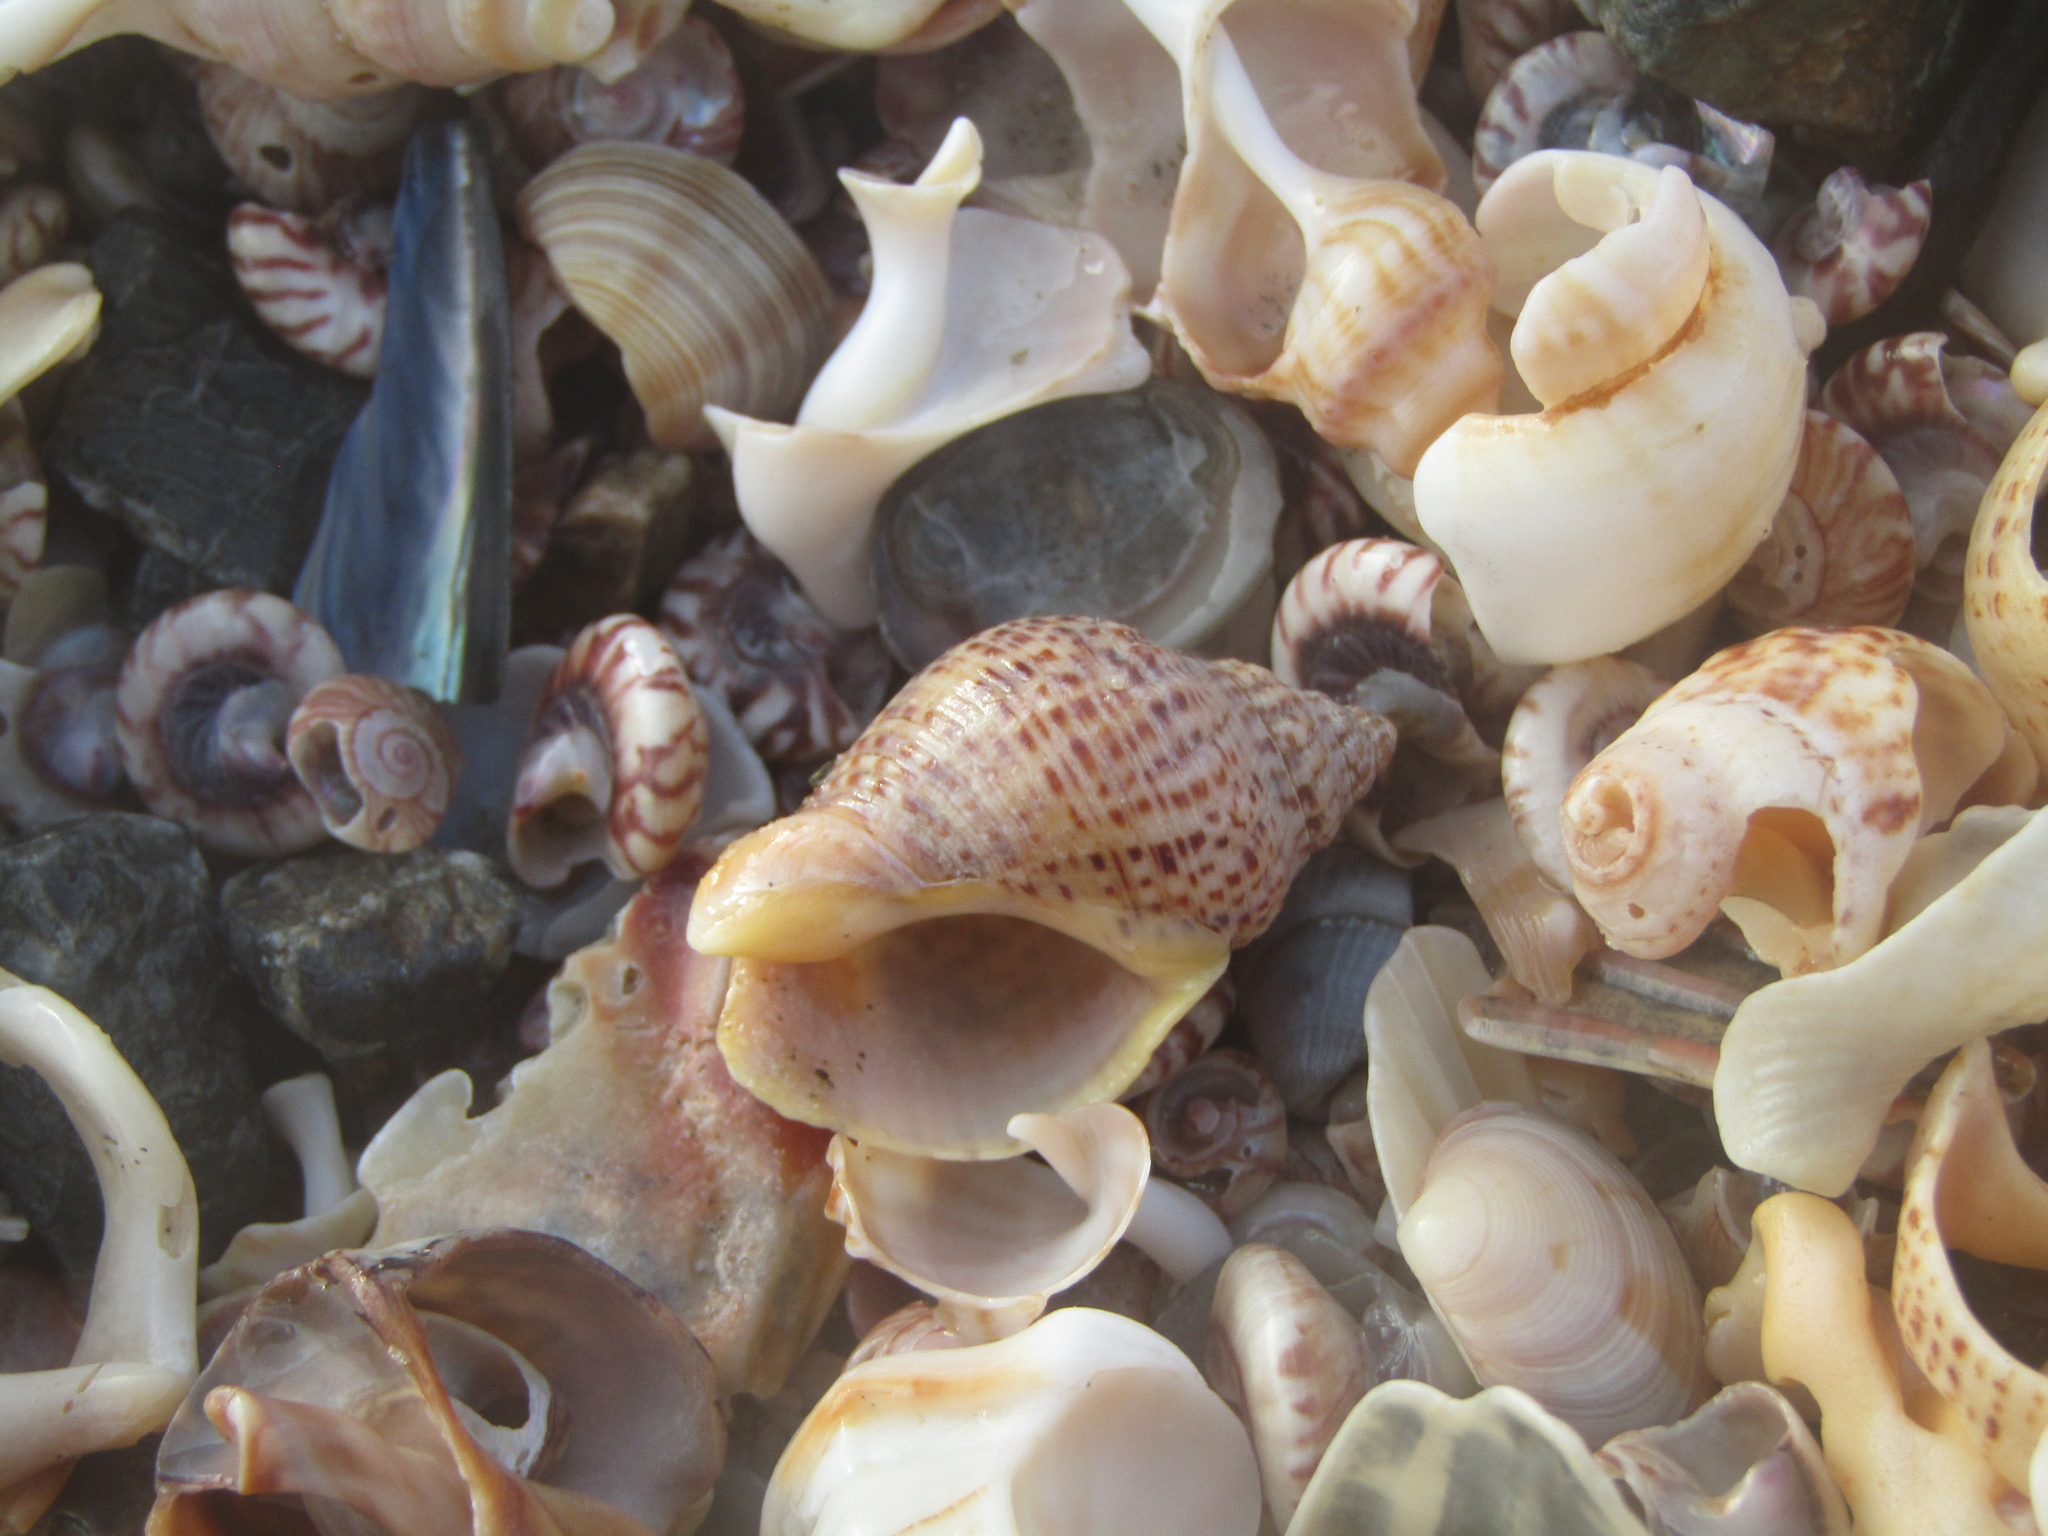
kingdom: Animalia
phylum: Mollusca
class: Gastropoda
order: Neogastropoda
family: Cominellidae
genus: Cominella
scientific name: Cominella adspersa
